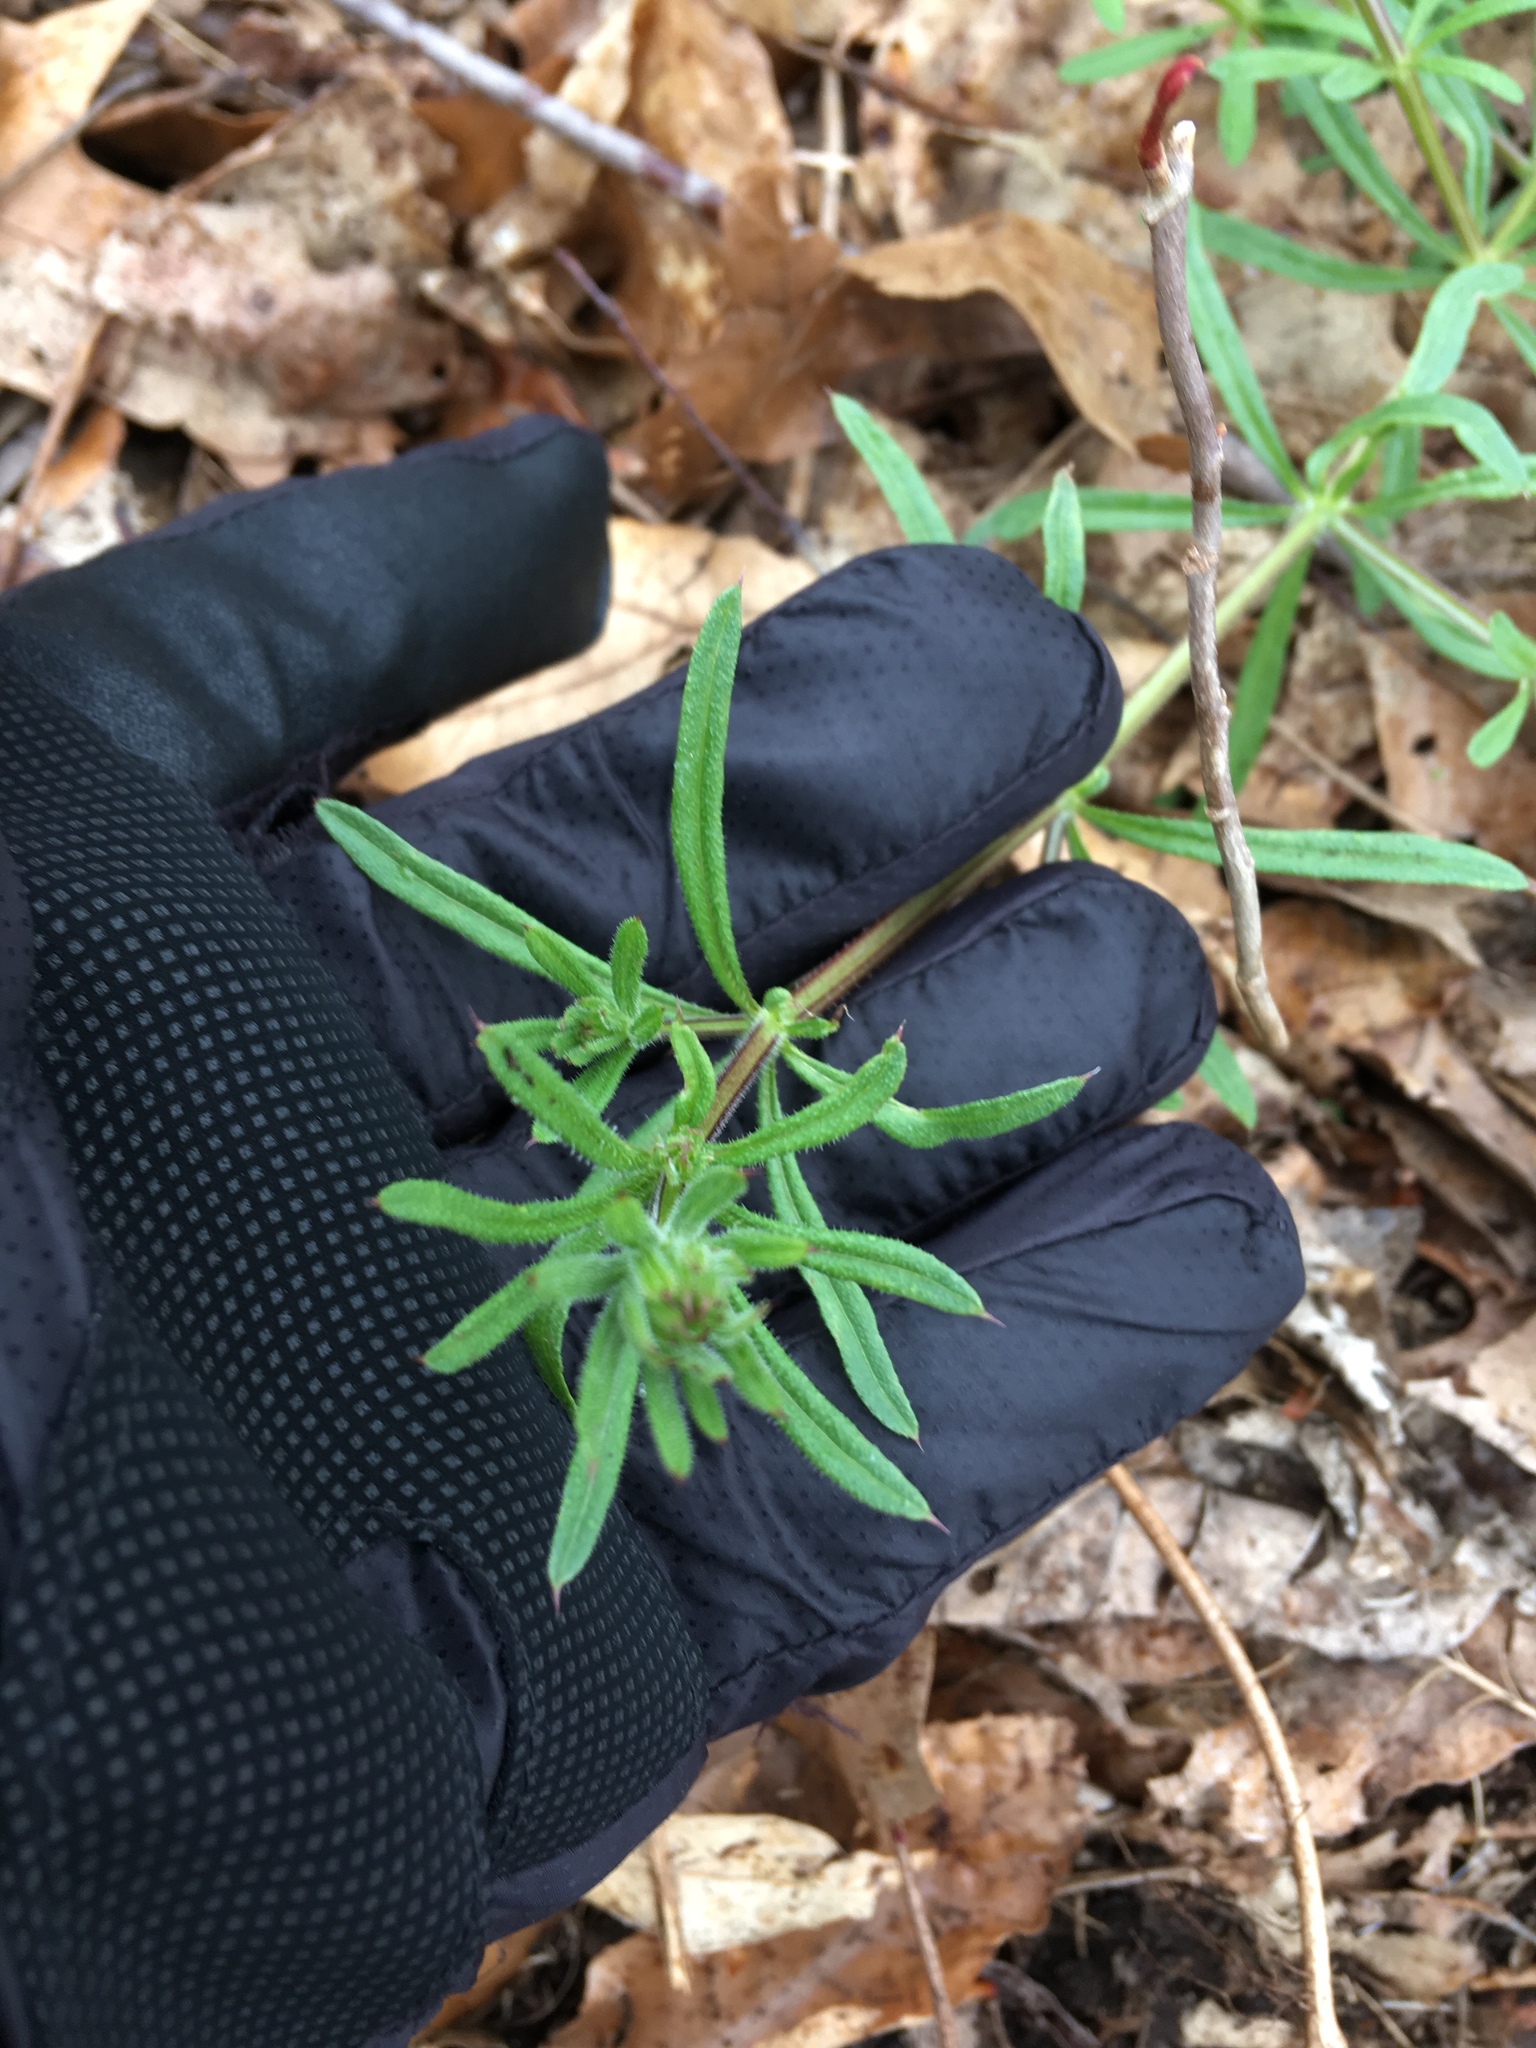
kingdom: Plantae
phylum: Tracheophyta
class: Magnoliopsida
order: Gentianales
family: Rubiaceae
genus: Galium
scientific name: Galium aparine
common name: Cleavers
